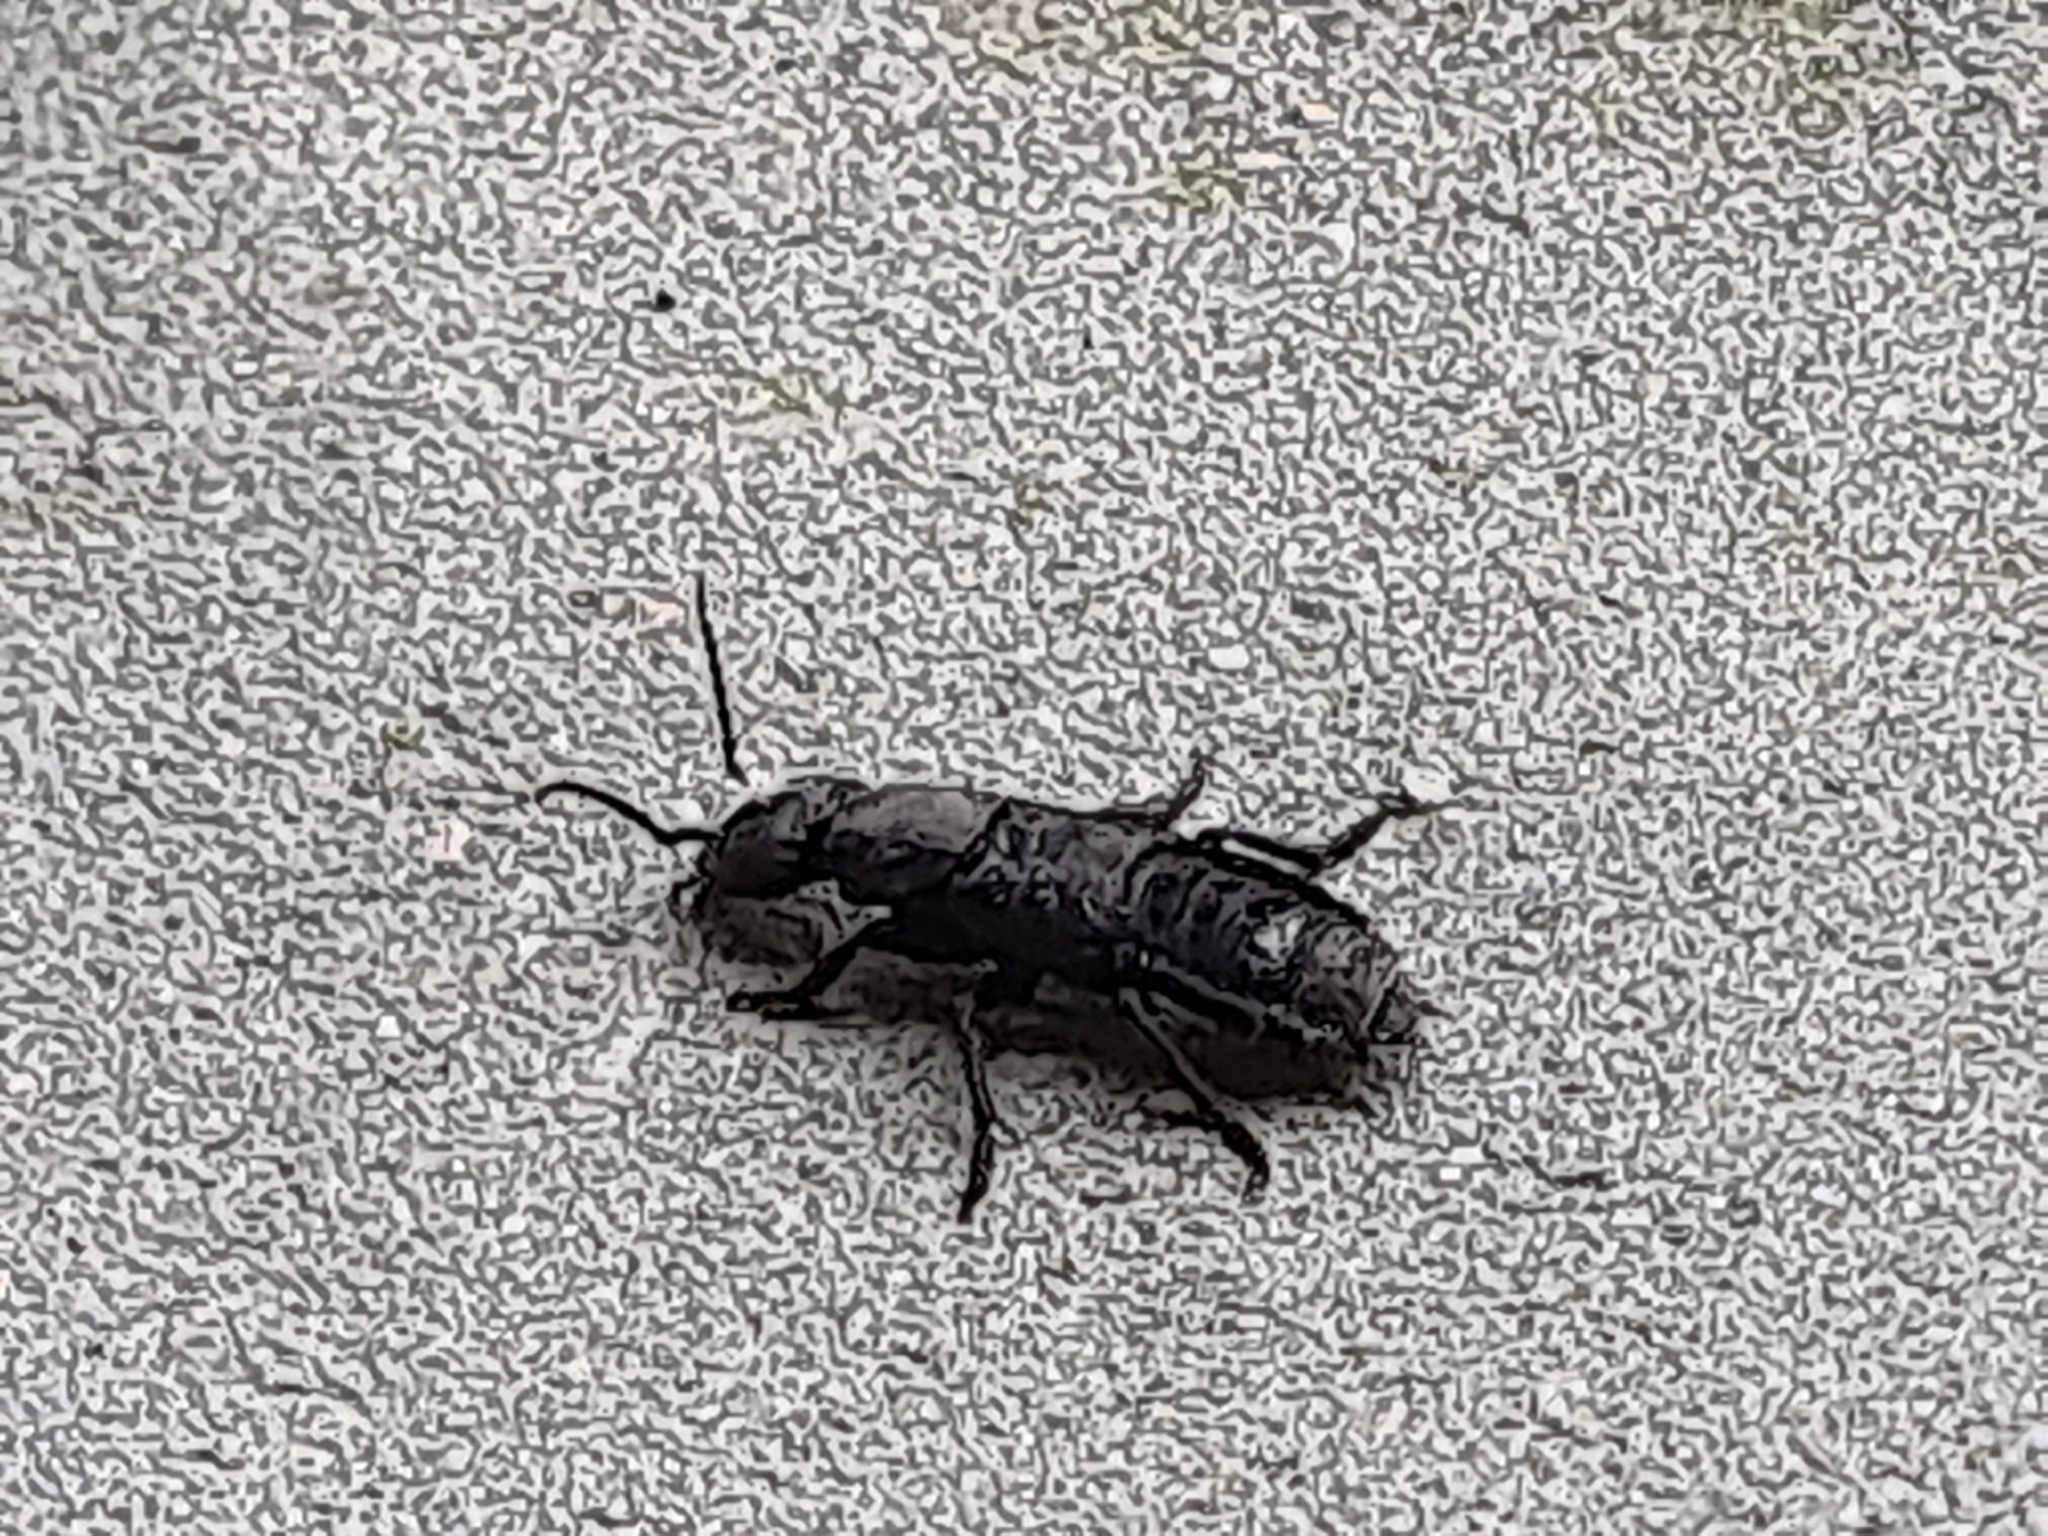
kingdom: Animalia
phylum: Arthropoda
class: Insecta
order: Coleoptera
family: Staphylinidae
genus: Ocypus
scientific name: Ocypus olens
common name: Devil's coach-horse
